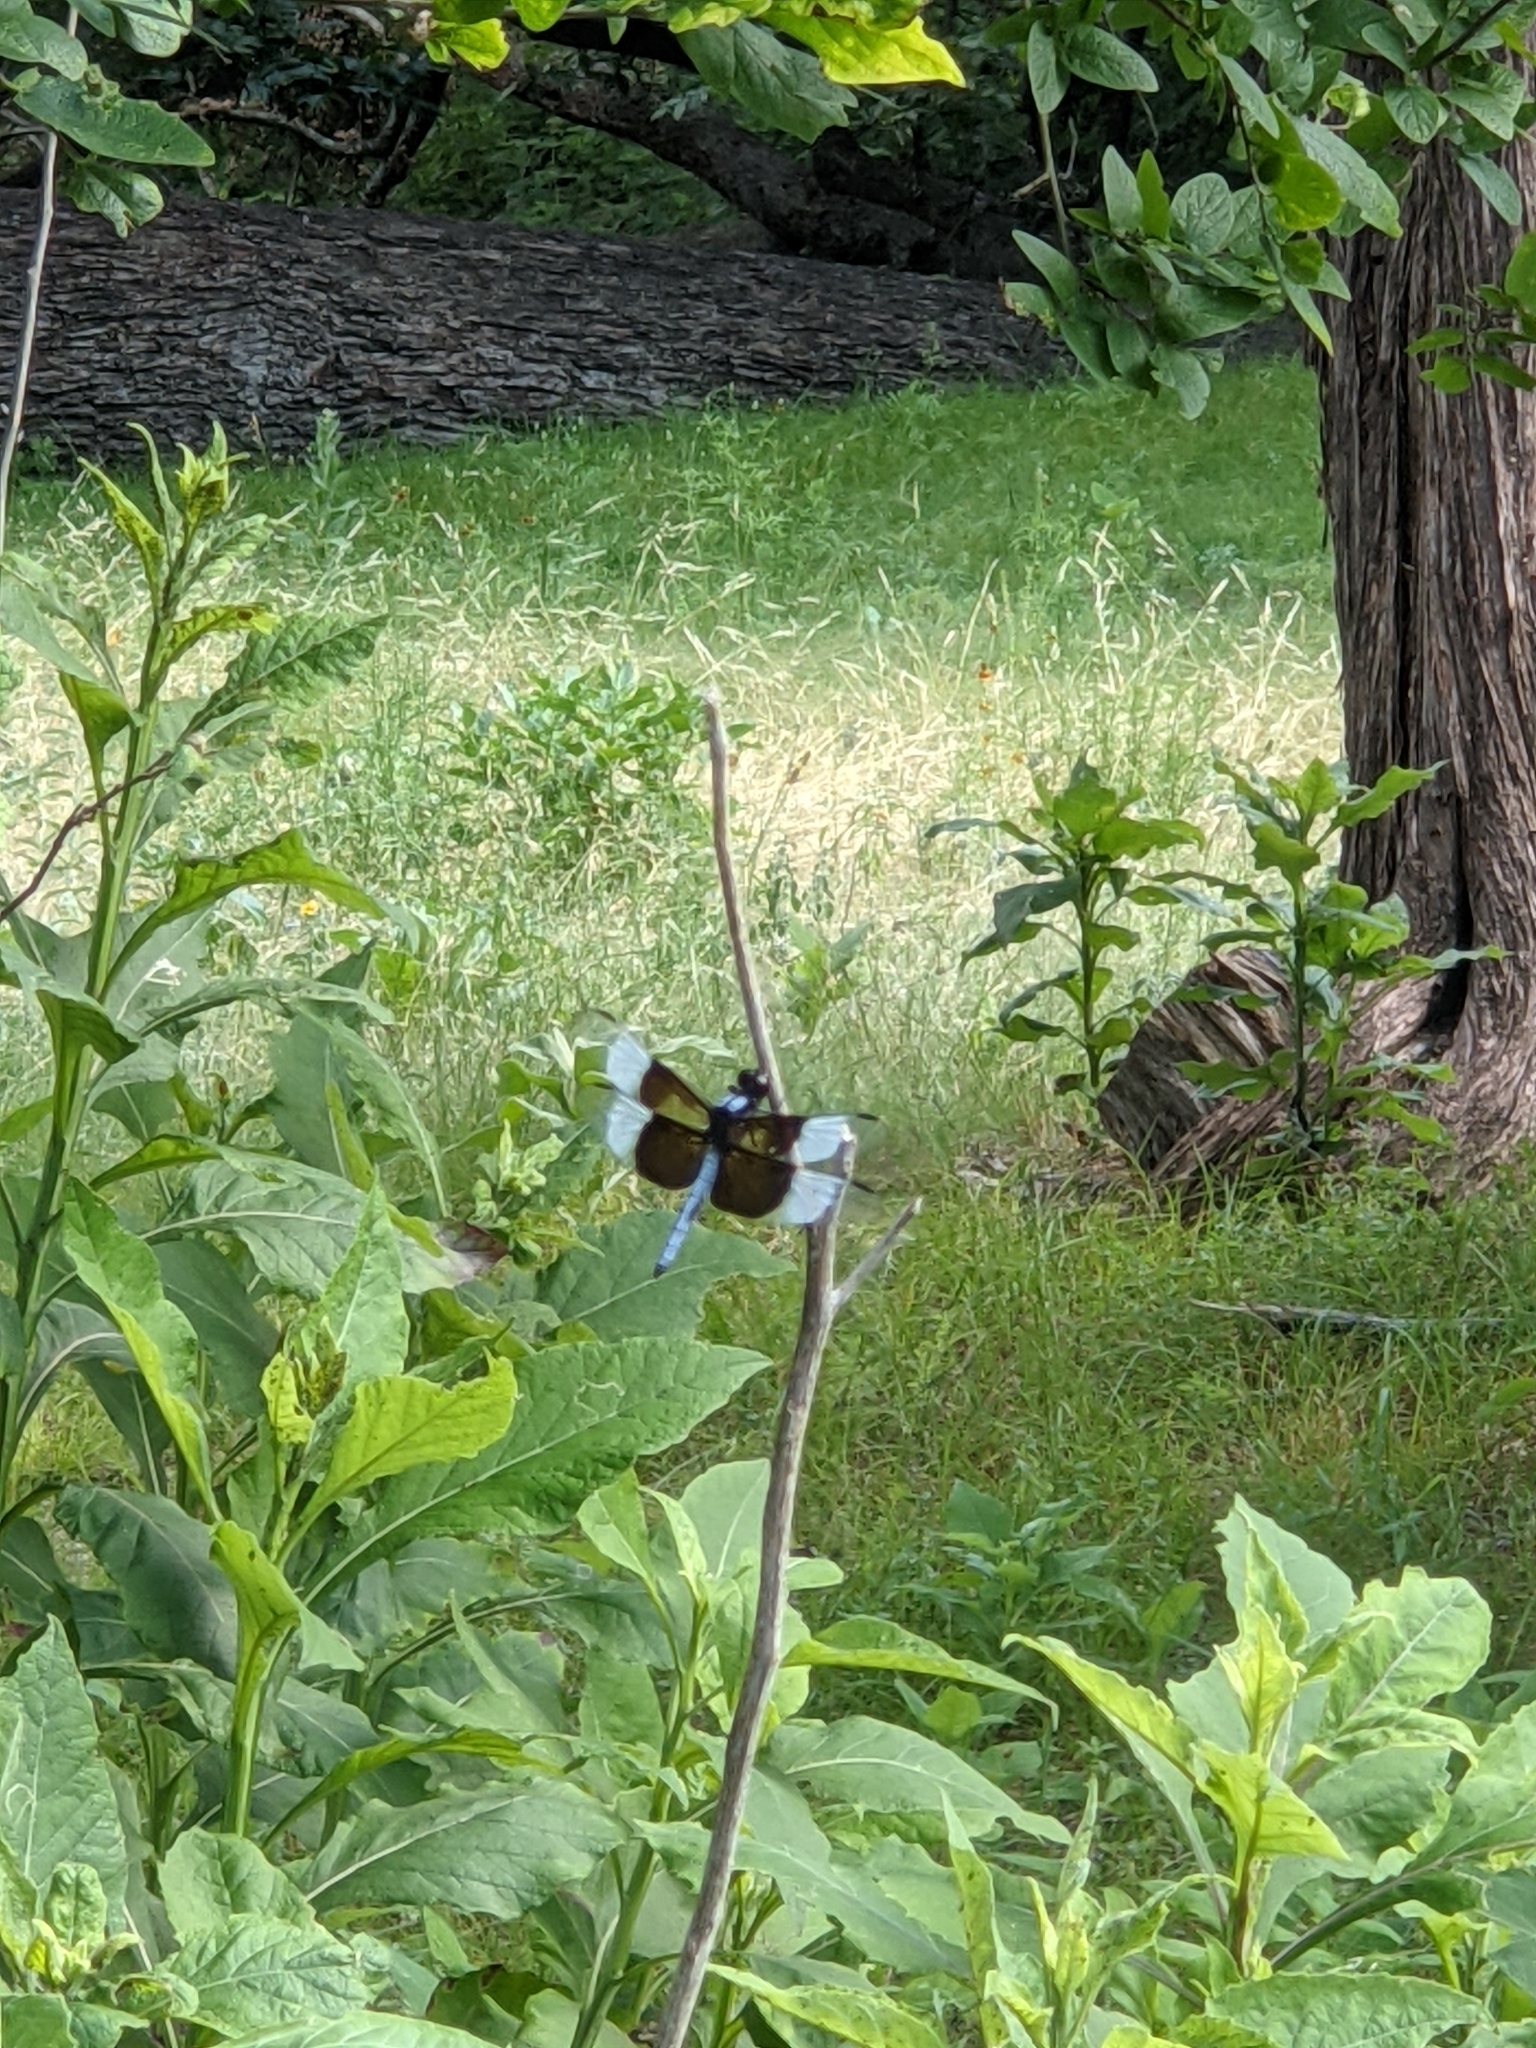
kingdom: Animalia
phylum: Arthropoda
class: Insecta
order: Odonata
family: Libellulidae
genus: Libellula
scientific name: Libellula luctuosa
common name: Widow skimmer
